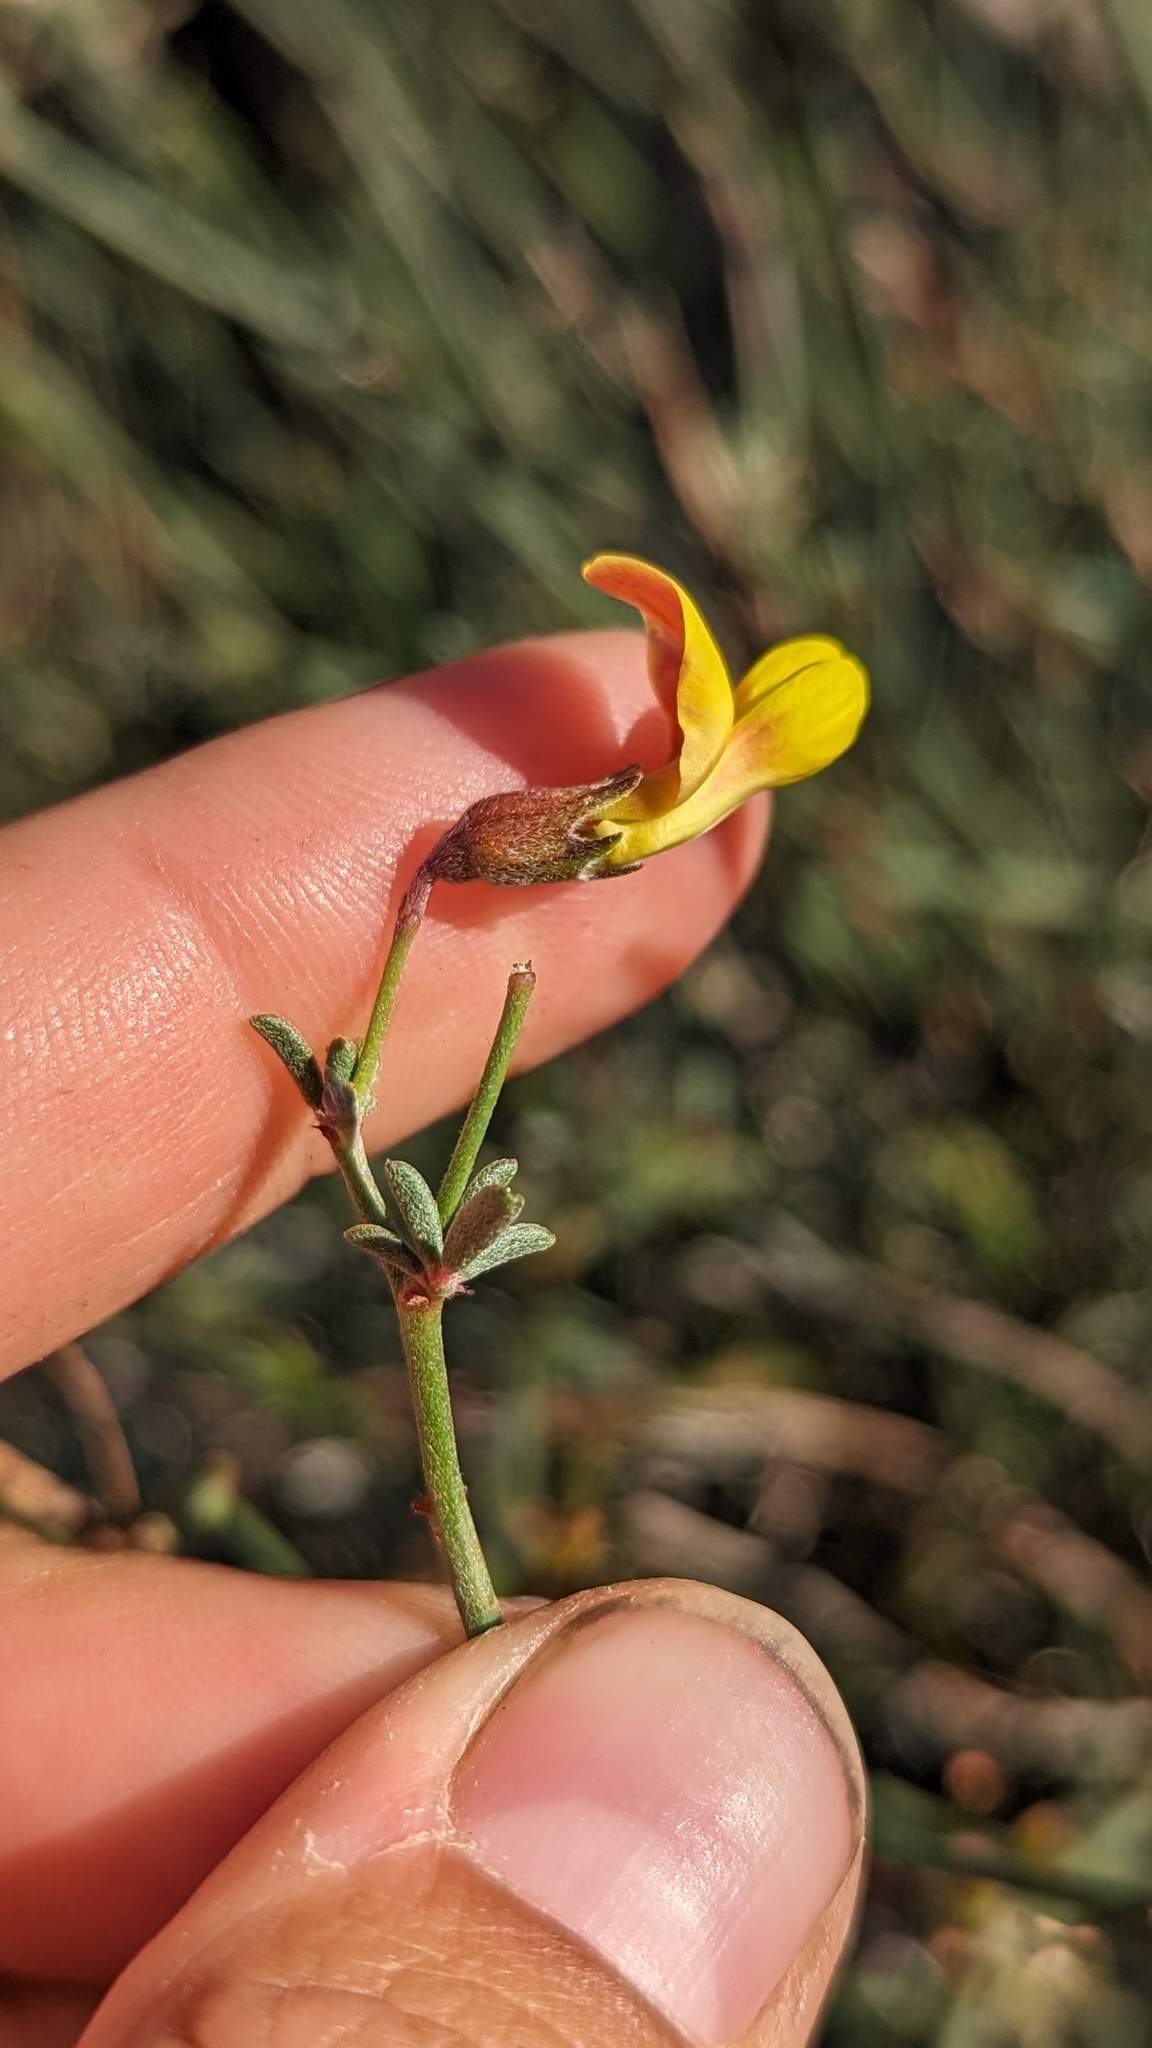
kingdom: Plantae
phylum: Tracheophyta
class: Magnoliopsida
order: Fabales
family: Fabaceae
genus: Acmispon
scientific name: Acmispon rigidus
